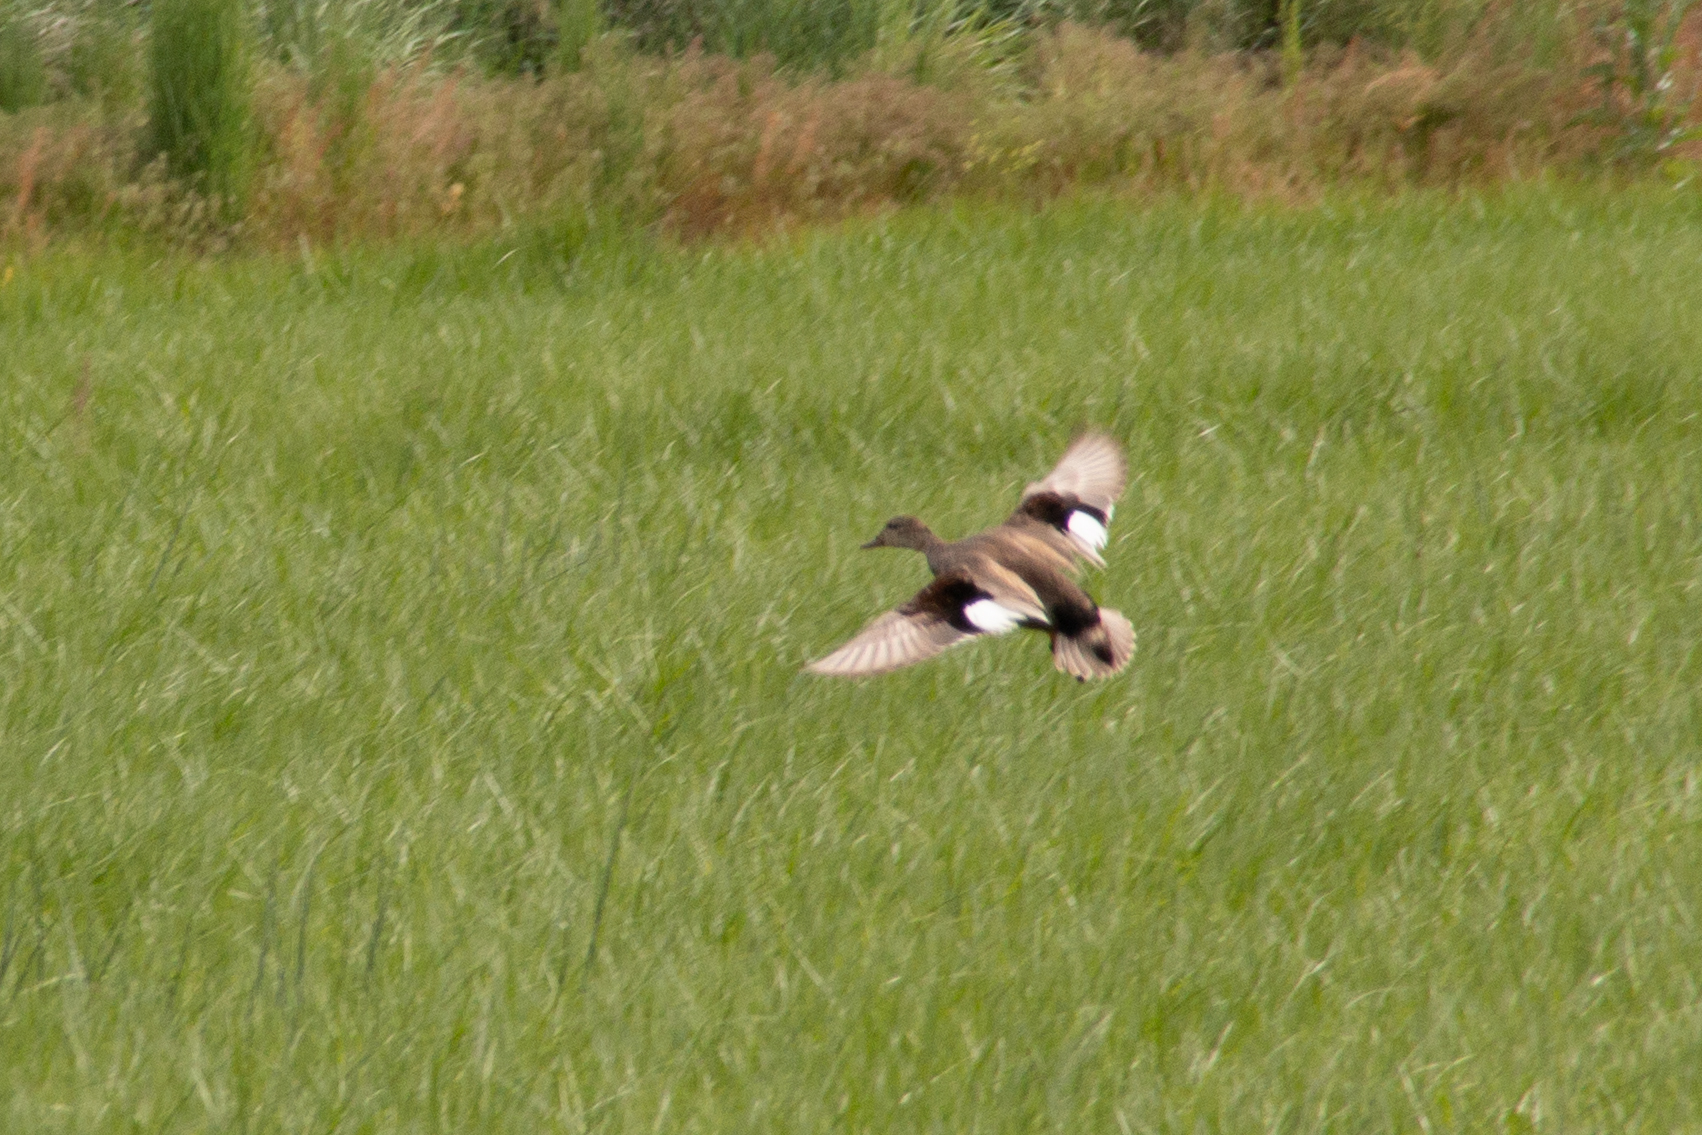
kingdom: Animalia
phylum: Chordata
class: Aves
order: Anseriformes
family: Anatidae
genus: Mareca
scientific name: Mareca strepera
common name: Gadwall
